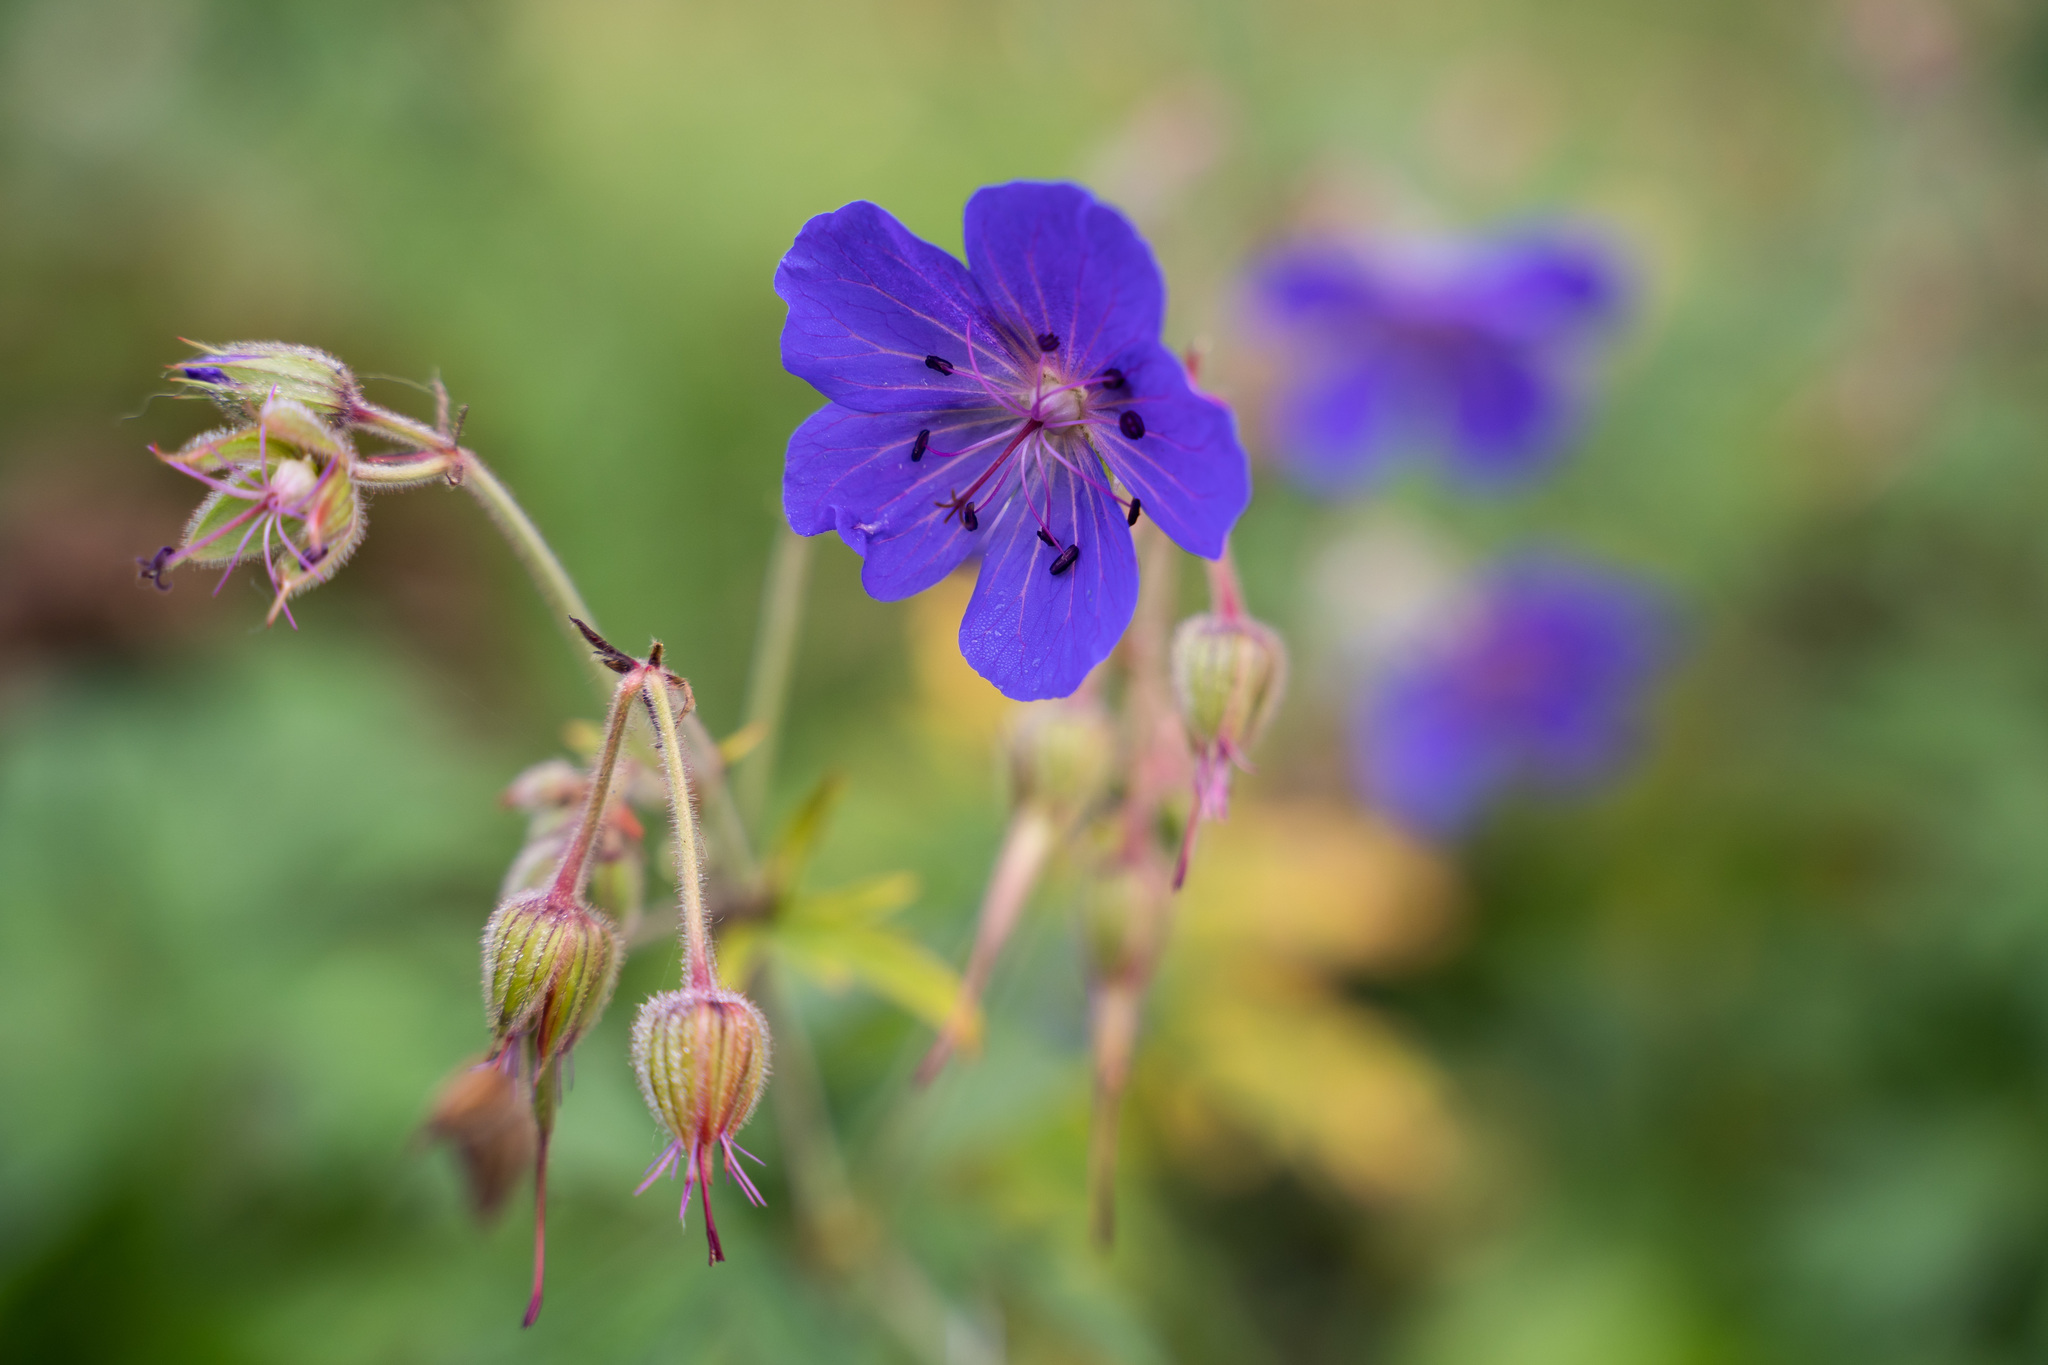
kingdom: Plantae
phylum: Tracheophyta
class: Magnoliopsida
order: Geraniales
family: Geraniaceae
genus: Geranium
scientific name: Geranium pratense
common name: Meadow crane's-bill
